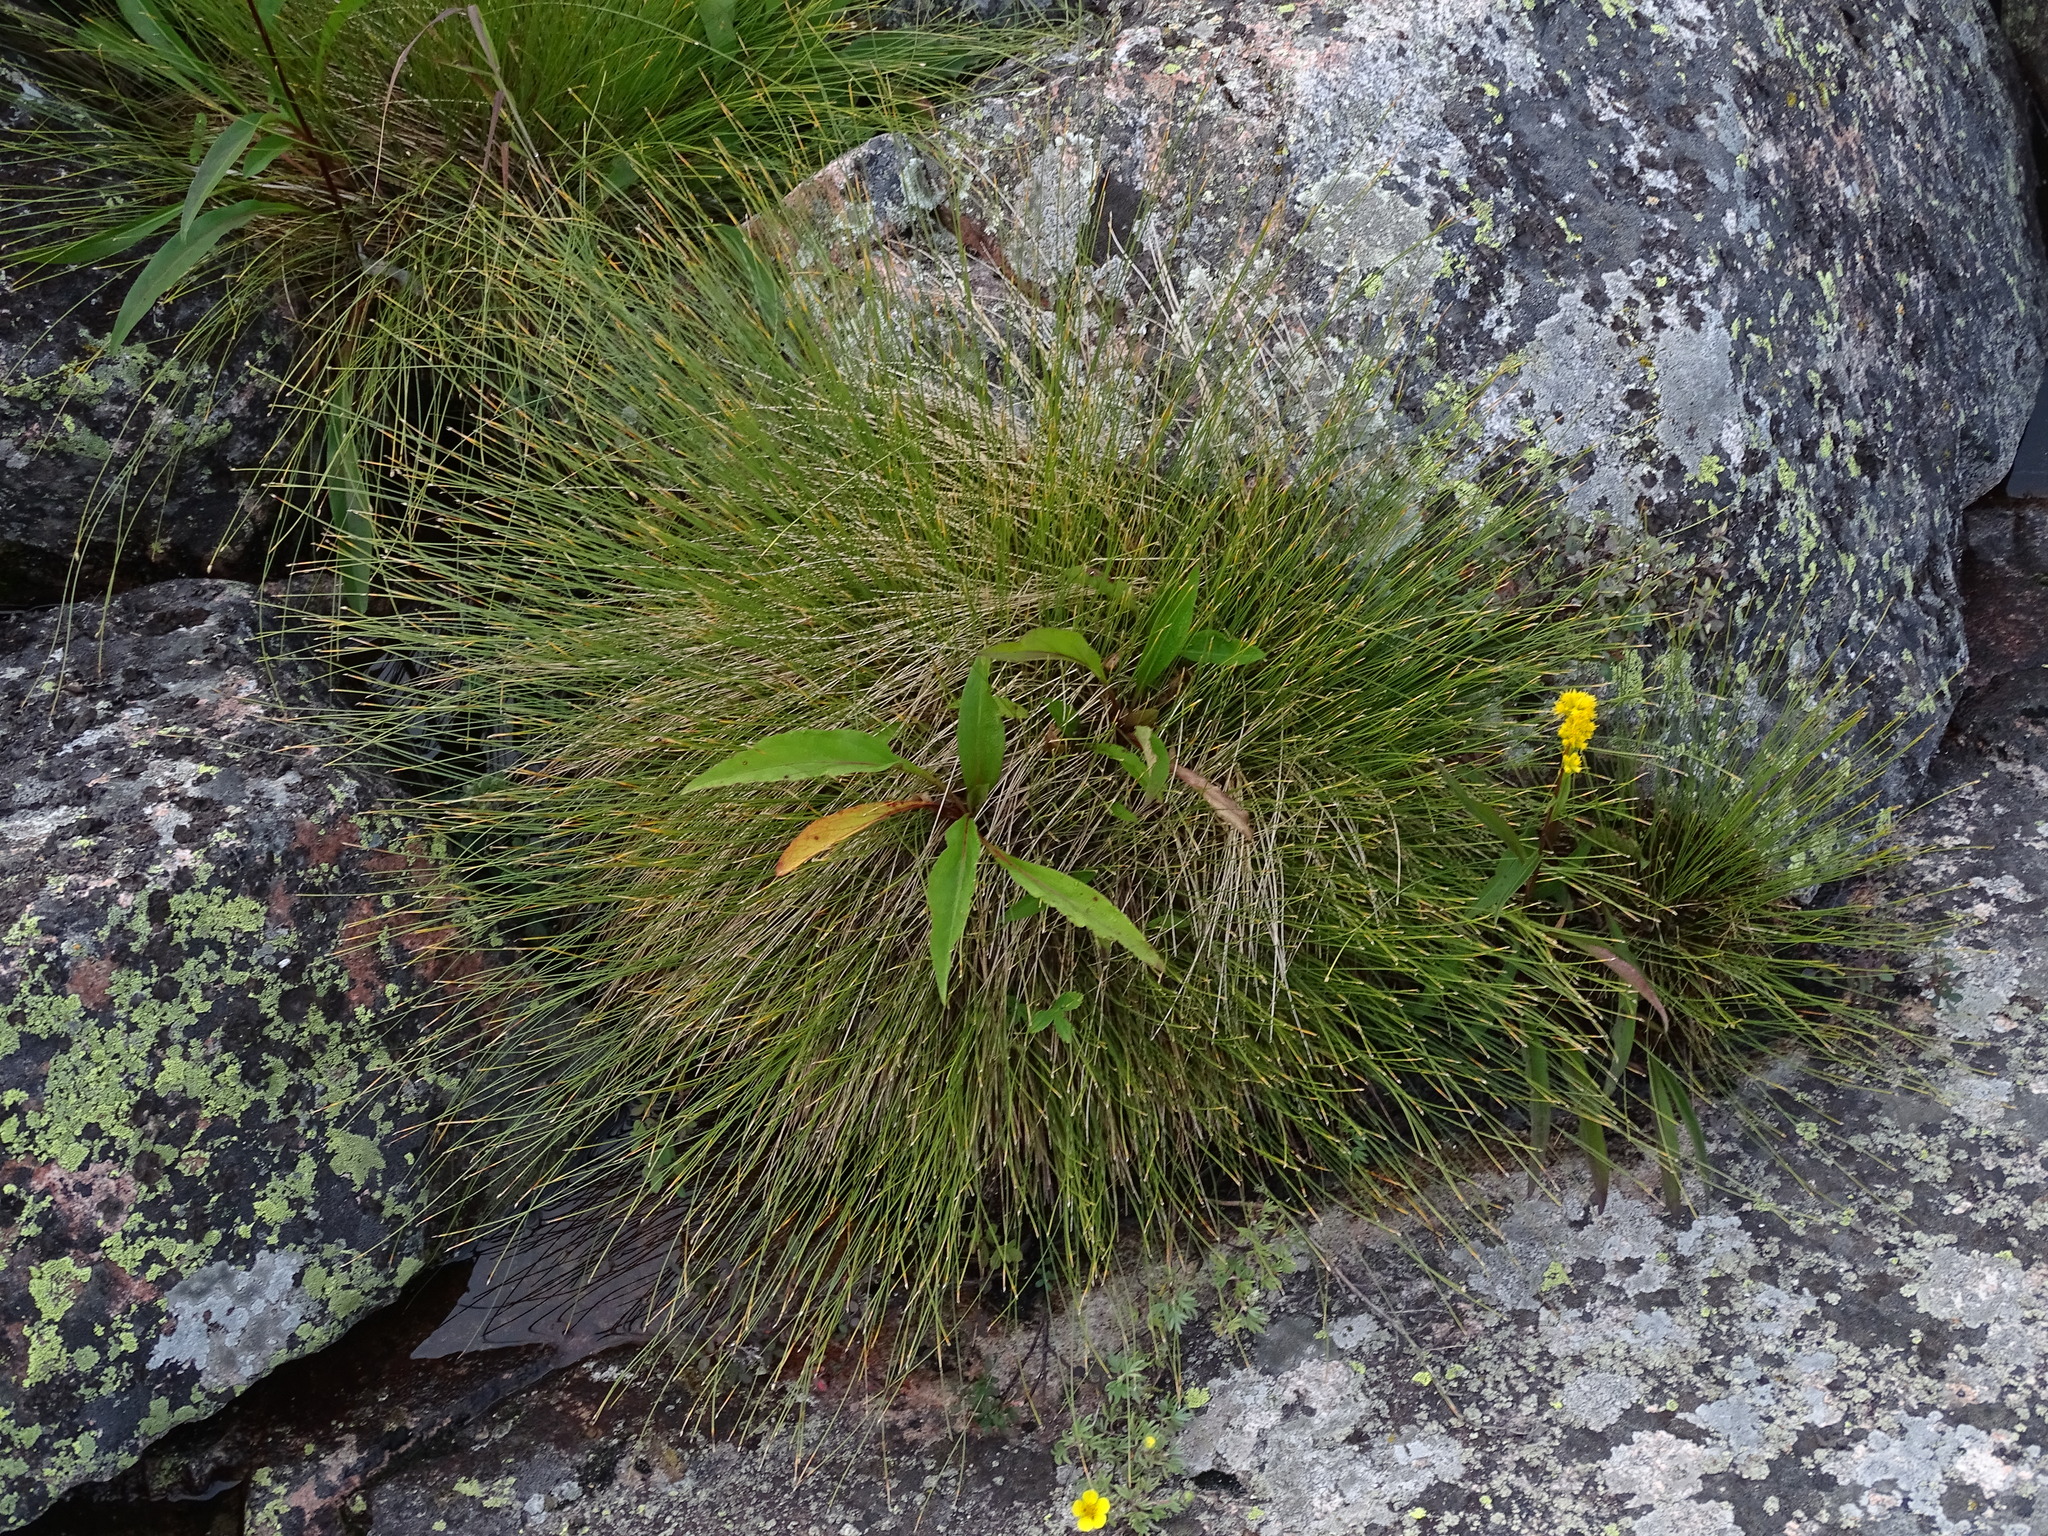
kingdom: Plantae
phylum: Tracheophyta
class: Liliopsida
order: Poales
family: Cyperaceae
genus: Trichophorum
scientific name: Trichophorum cespitosum
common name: Cespitose bulrush
